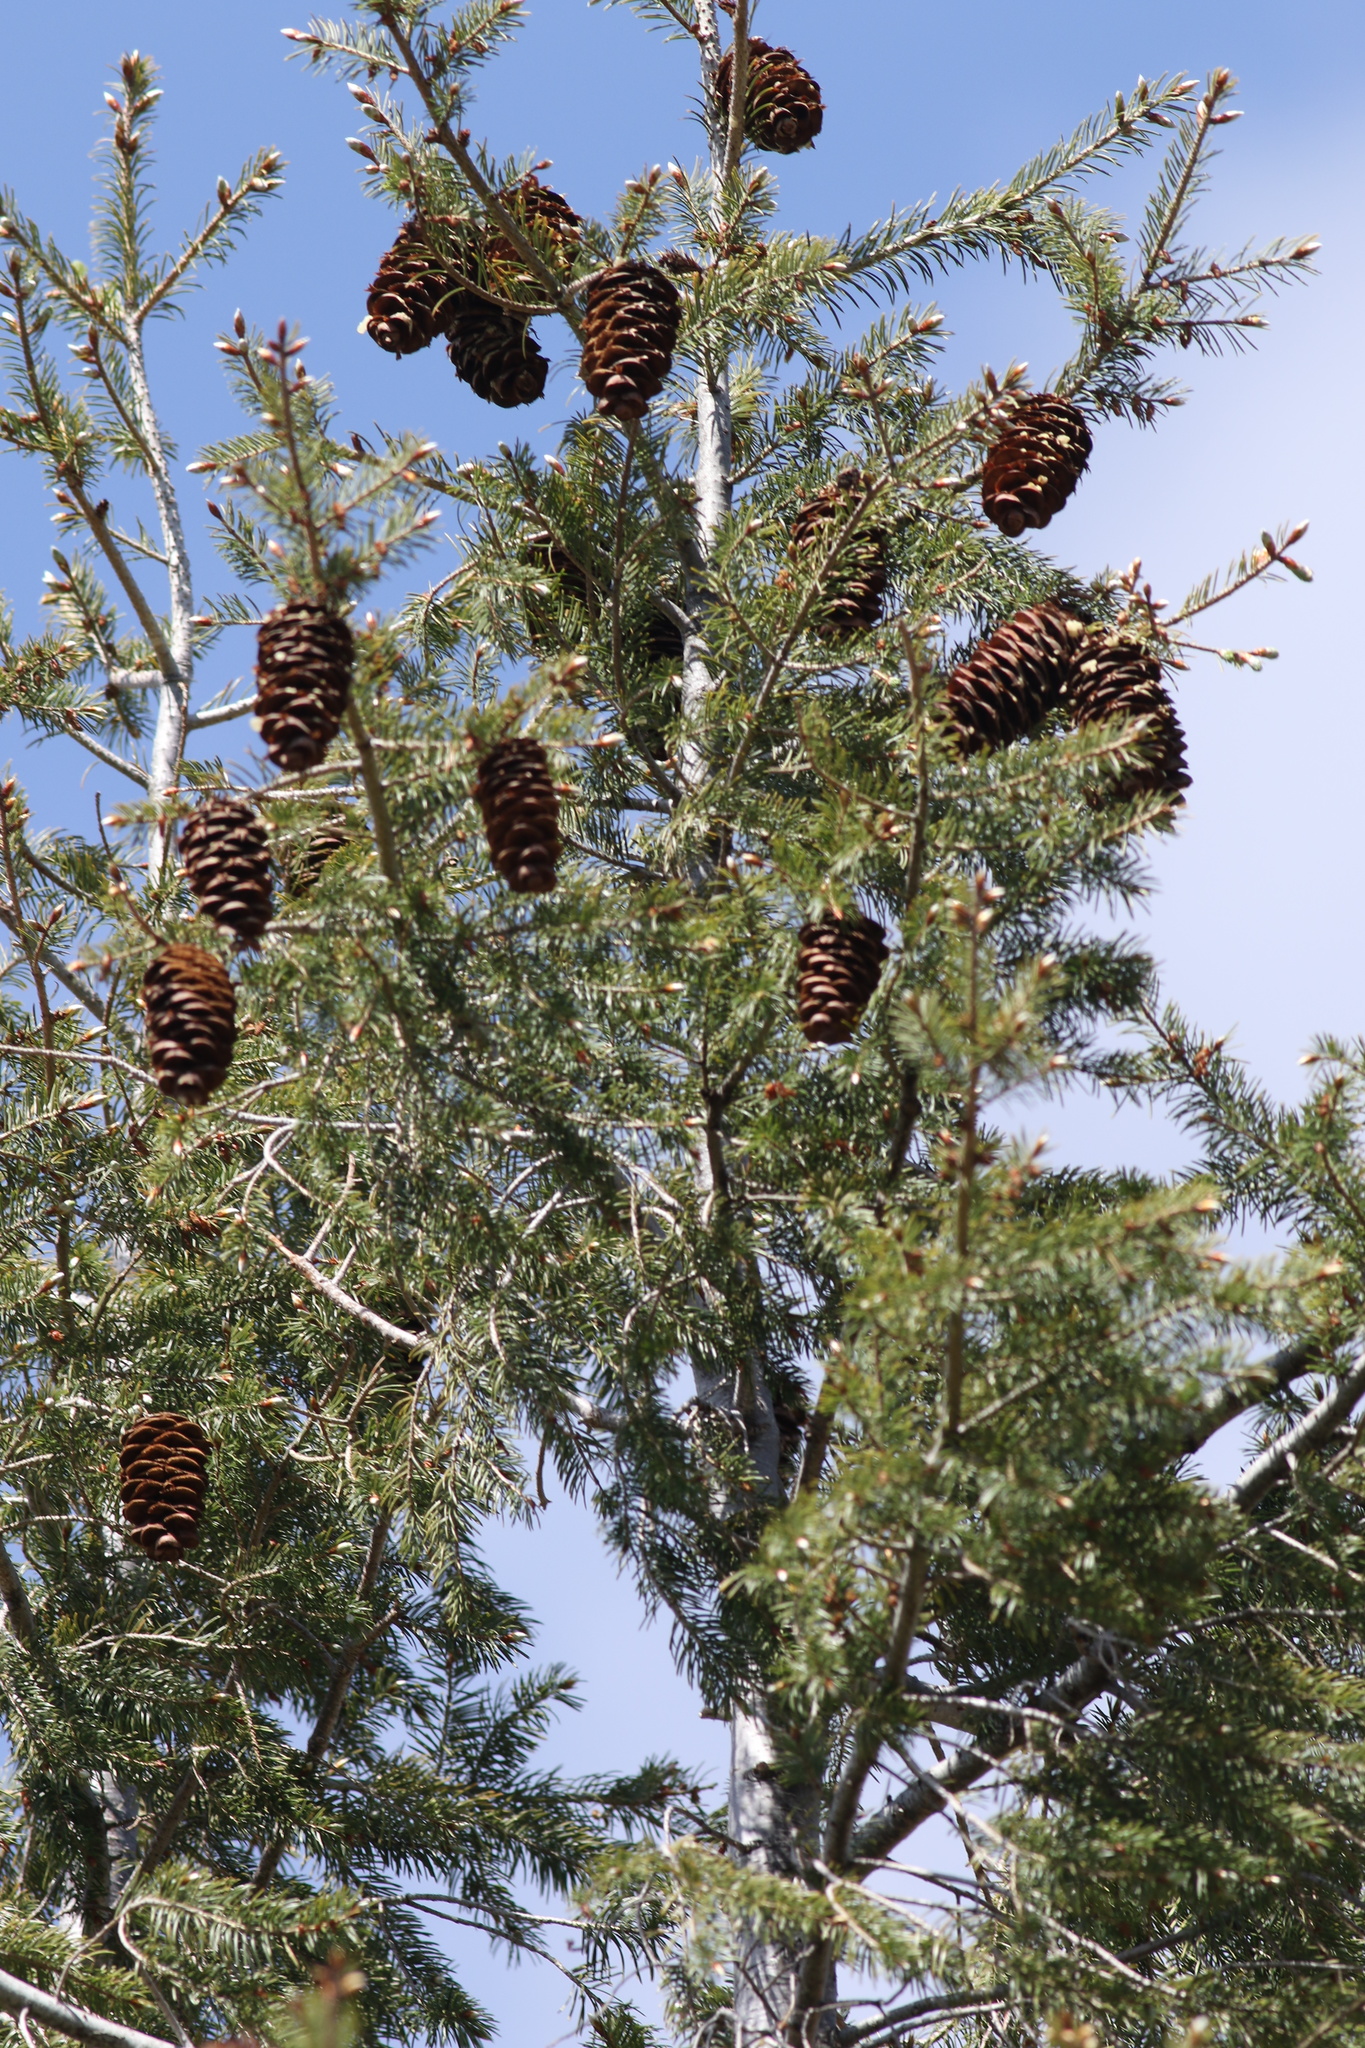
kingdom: Plantae
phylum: Tracheophyta
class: Pinopsida
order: Pinales
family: Pinaceae
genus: Pseudotsuga
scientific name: Pseudotsuga macrocarpa
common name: Big-cone douglas-fir
